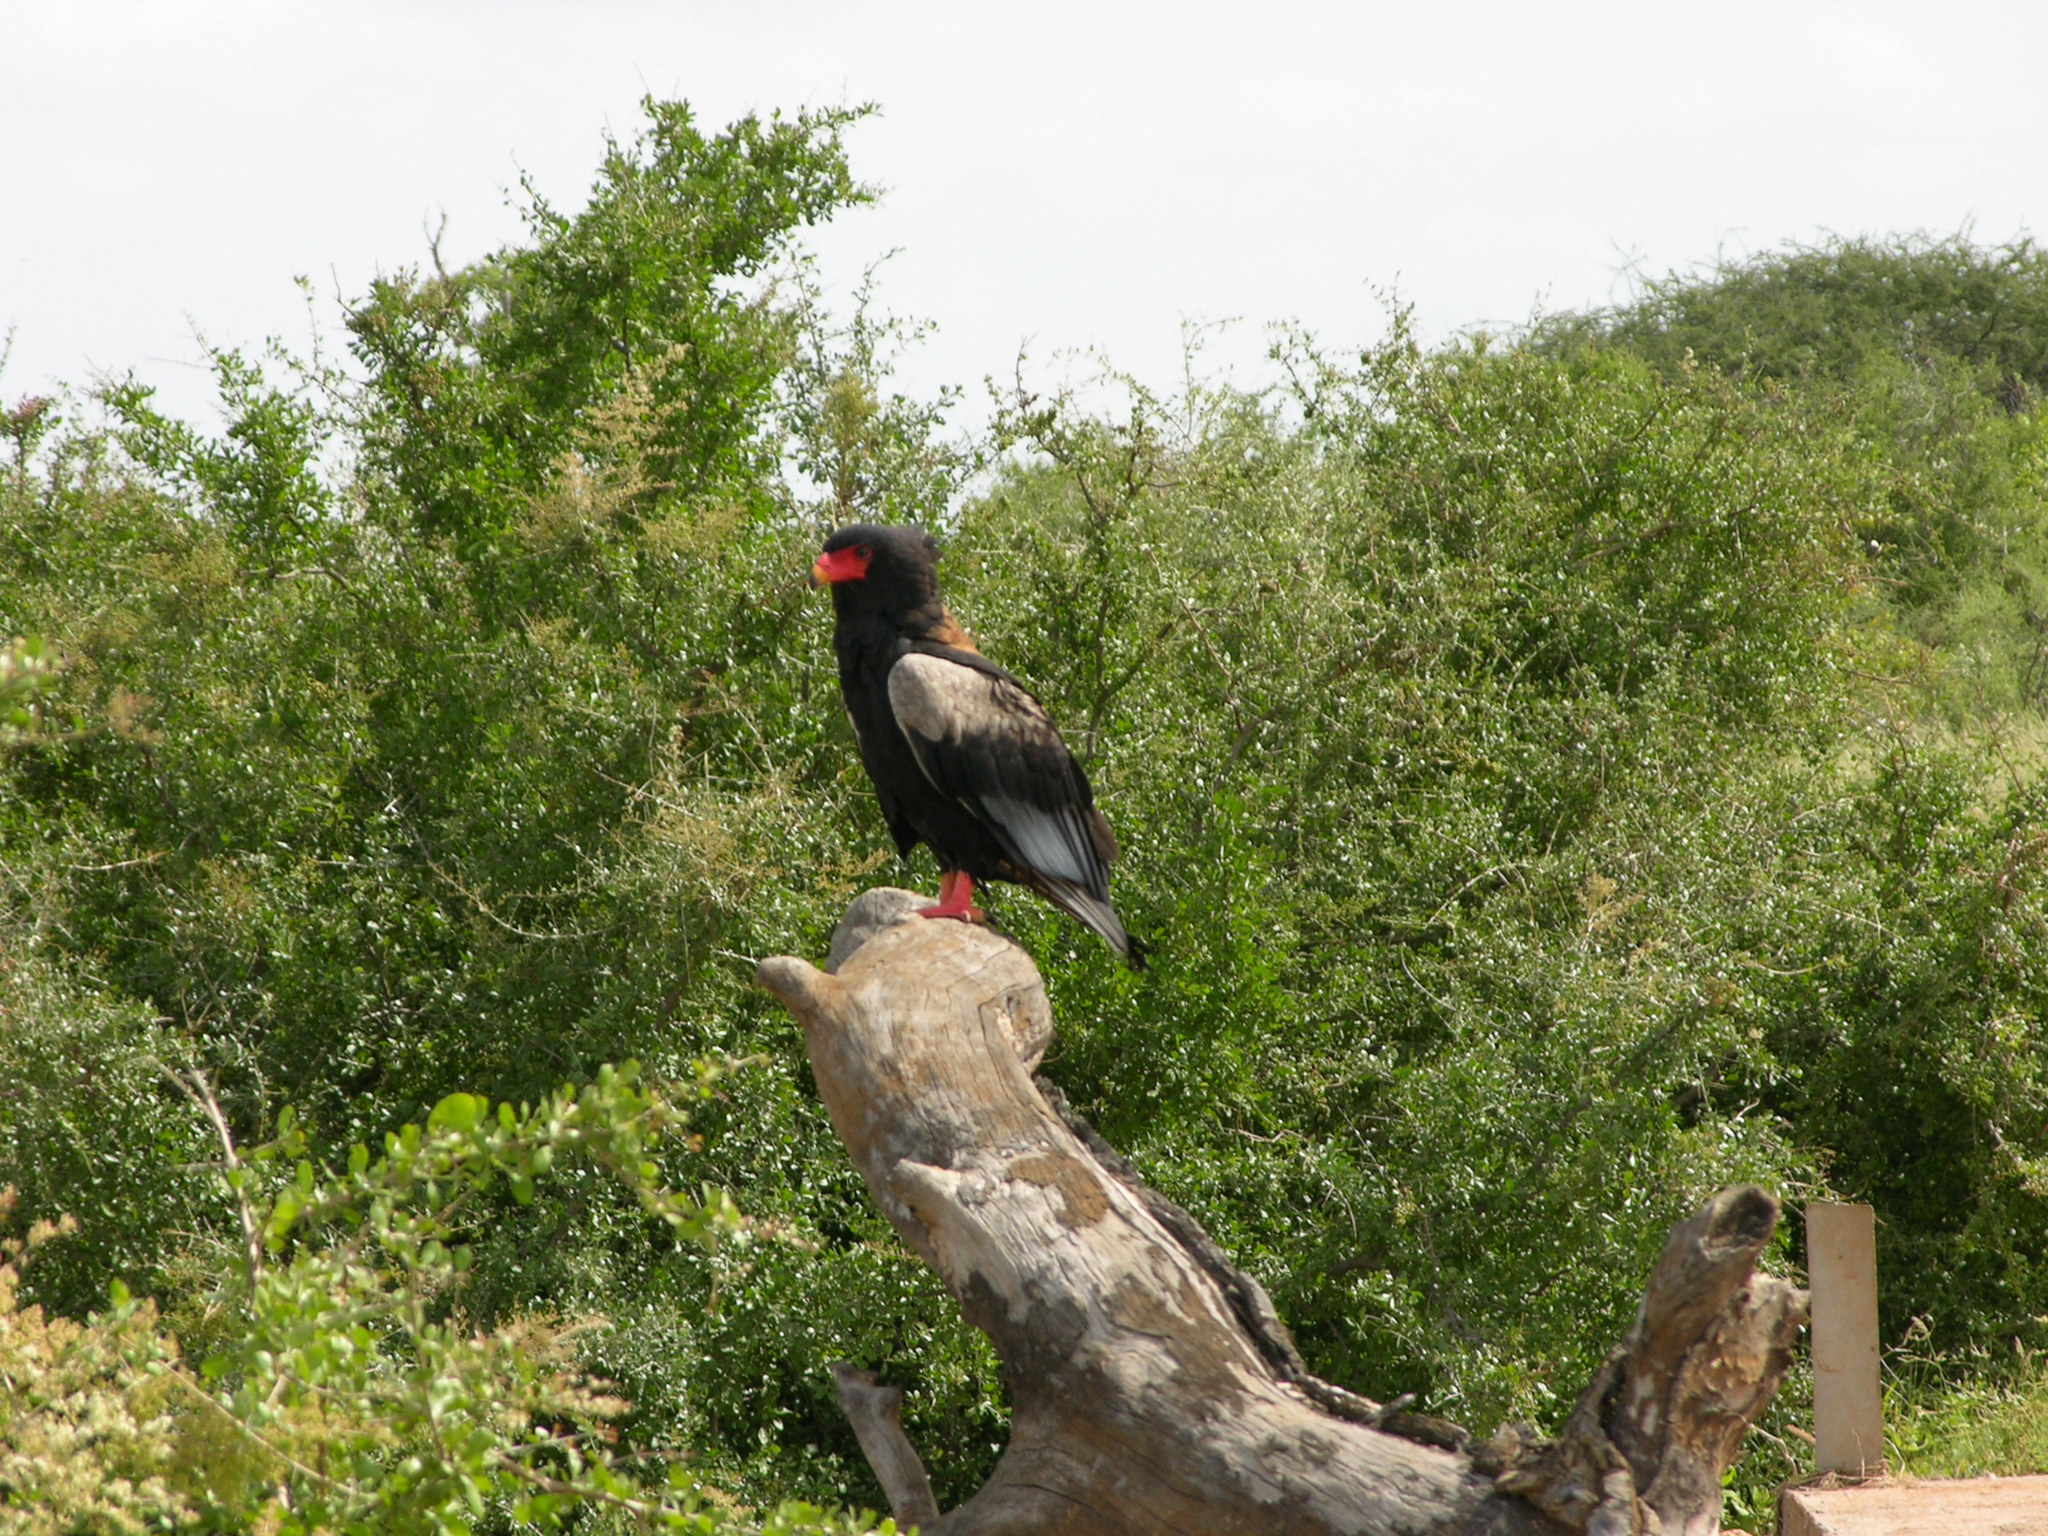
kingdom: Animalia
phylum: Chordata
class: Aves
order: Accipitriformes
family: Accipitridae
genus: Terathopius
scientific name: Terathopius ecaudatus
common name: Bateleur
